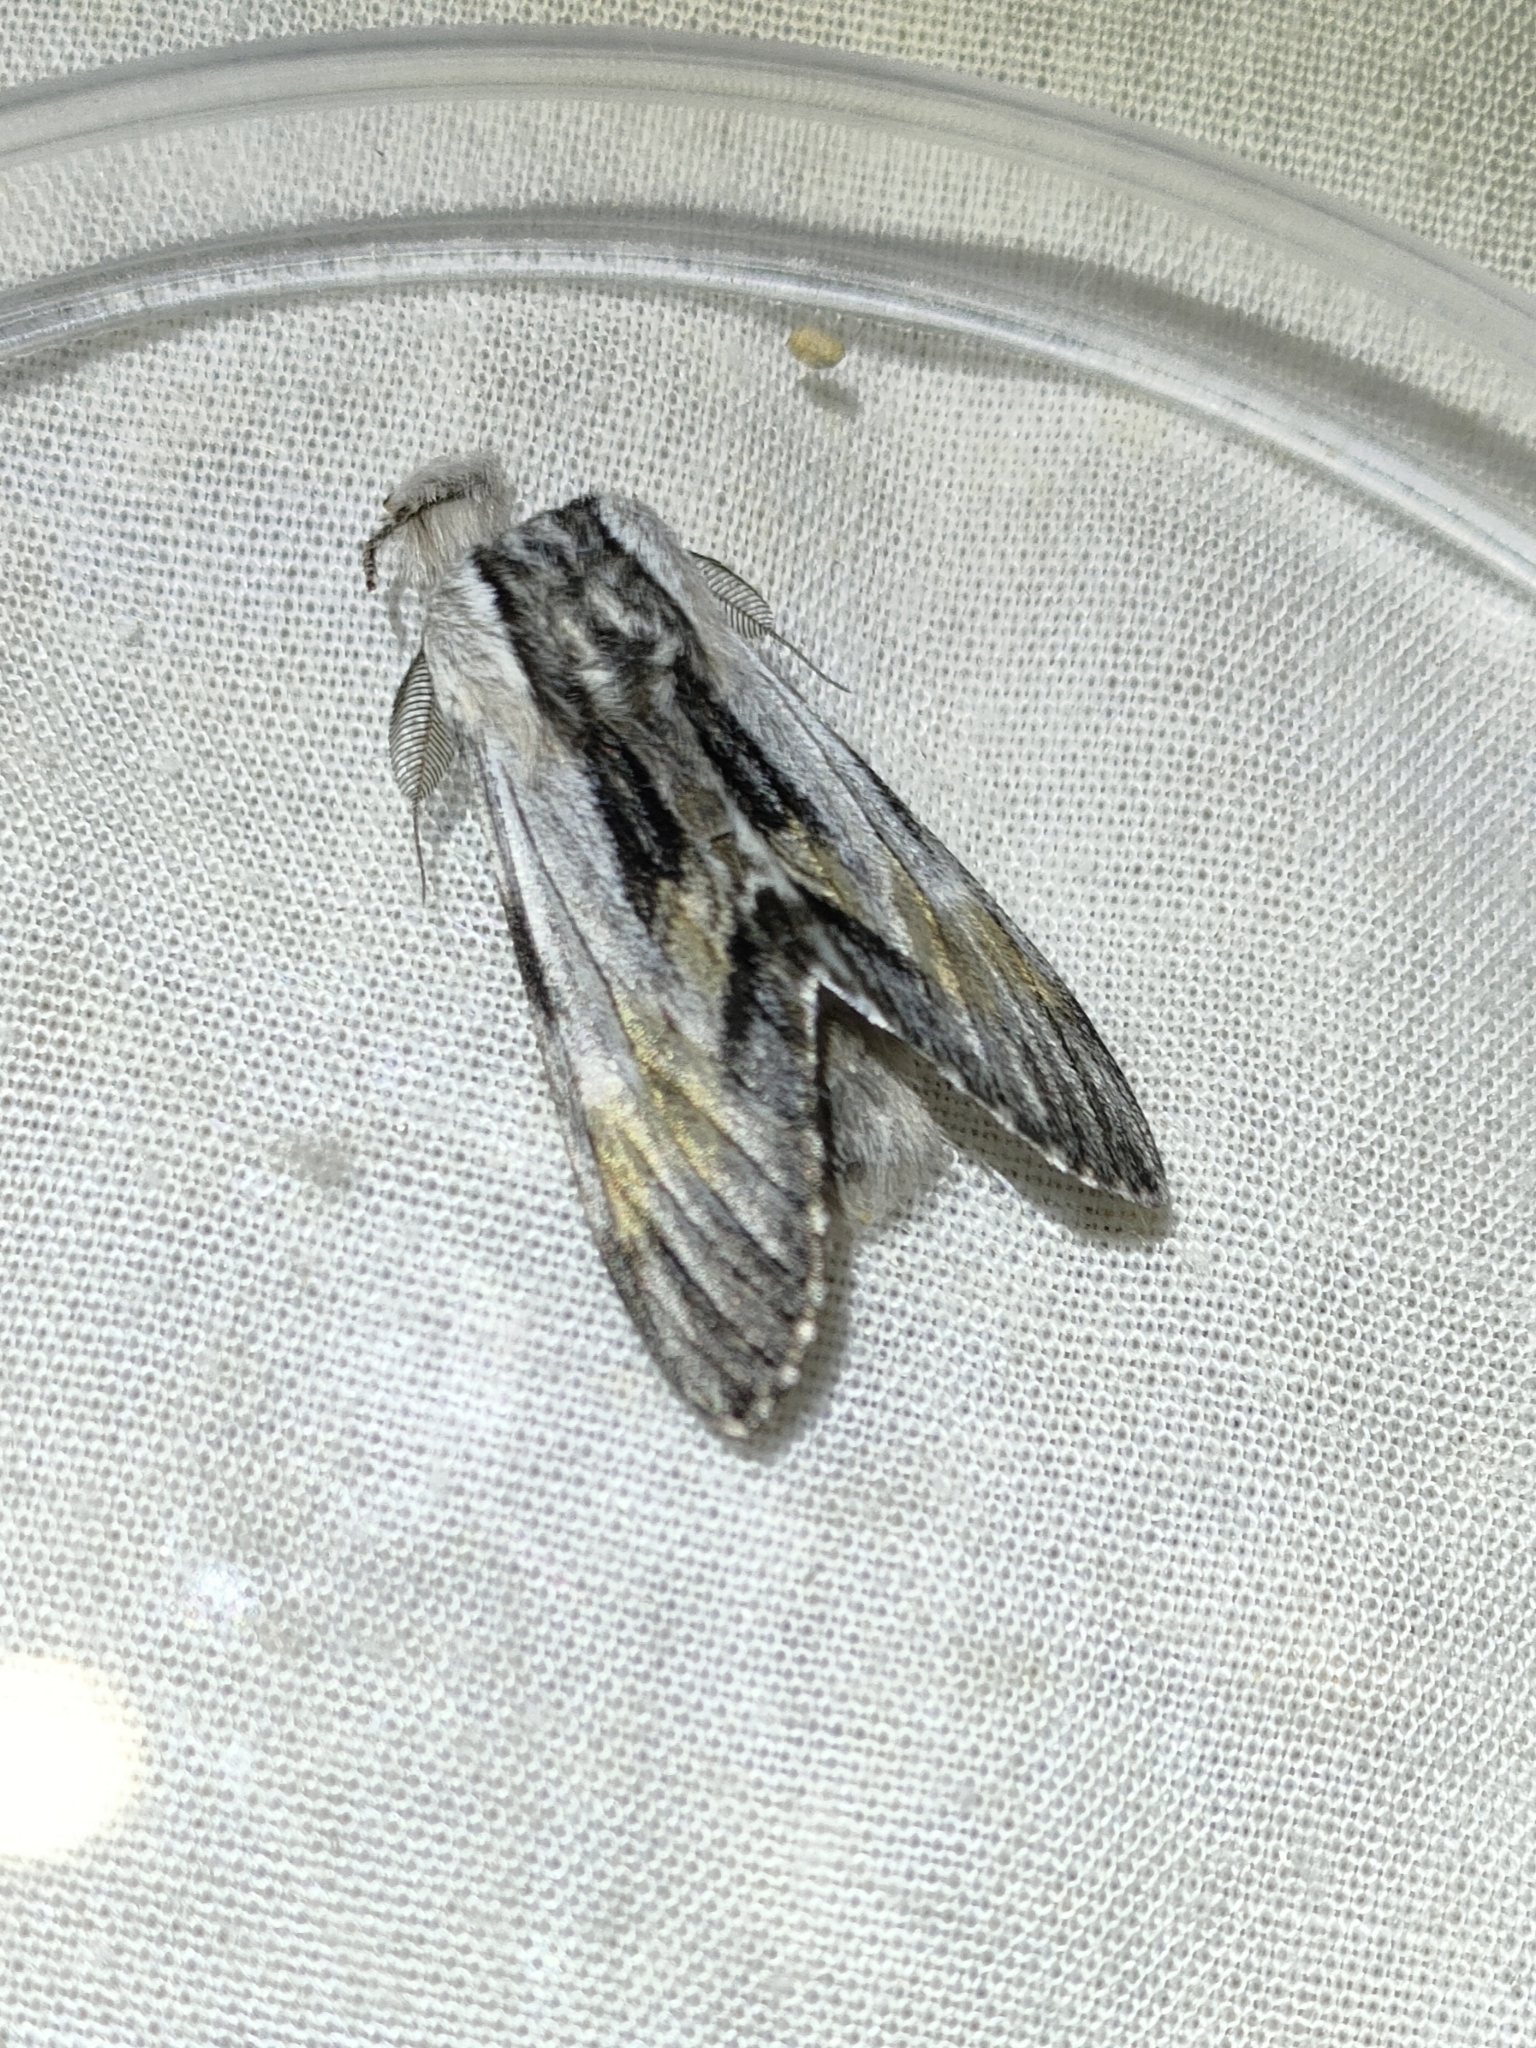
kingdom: Animalia
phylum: Arthropoda
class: Insecta
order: Lepidoptera
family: Notodontidae
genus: Harpyia
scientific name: Harpyia milhauseri
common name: Tawny prominent
